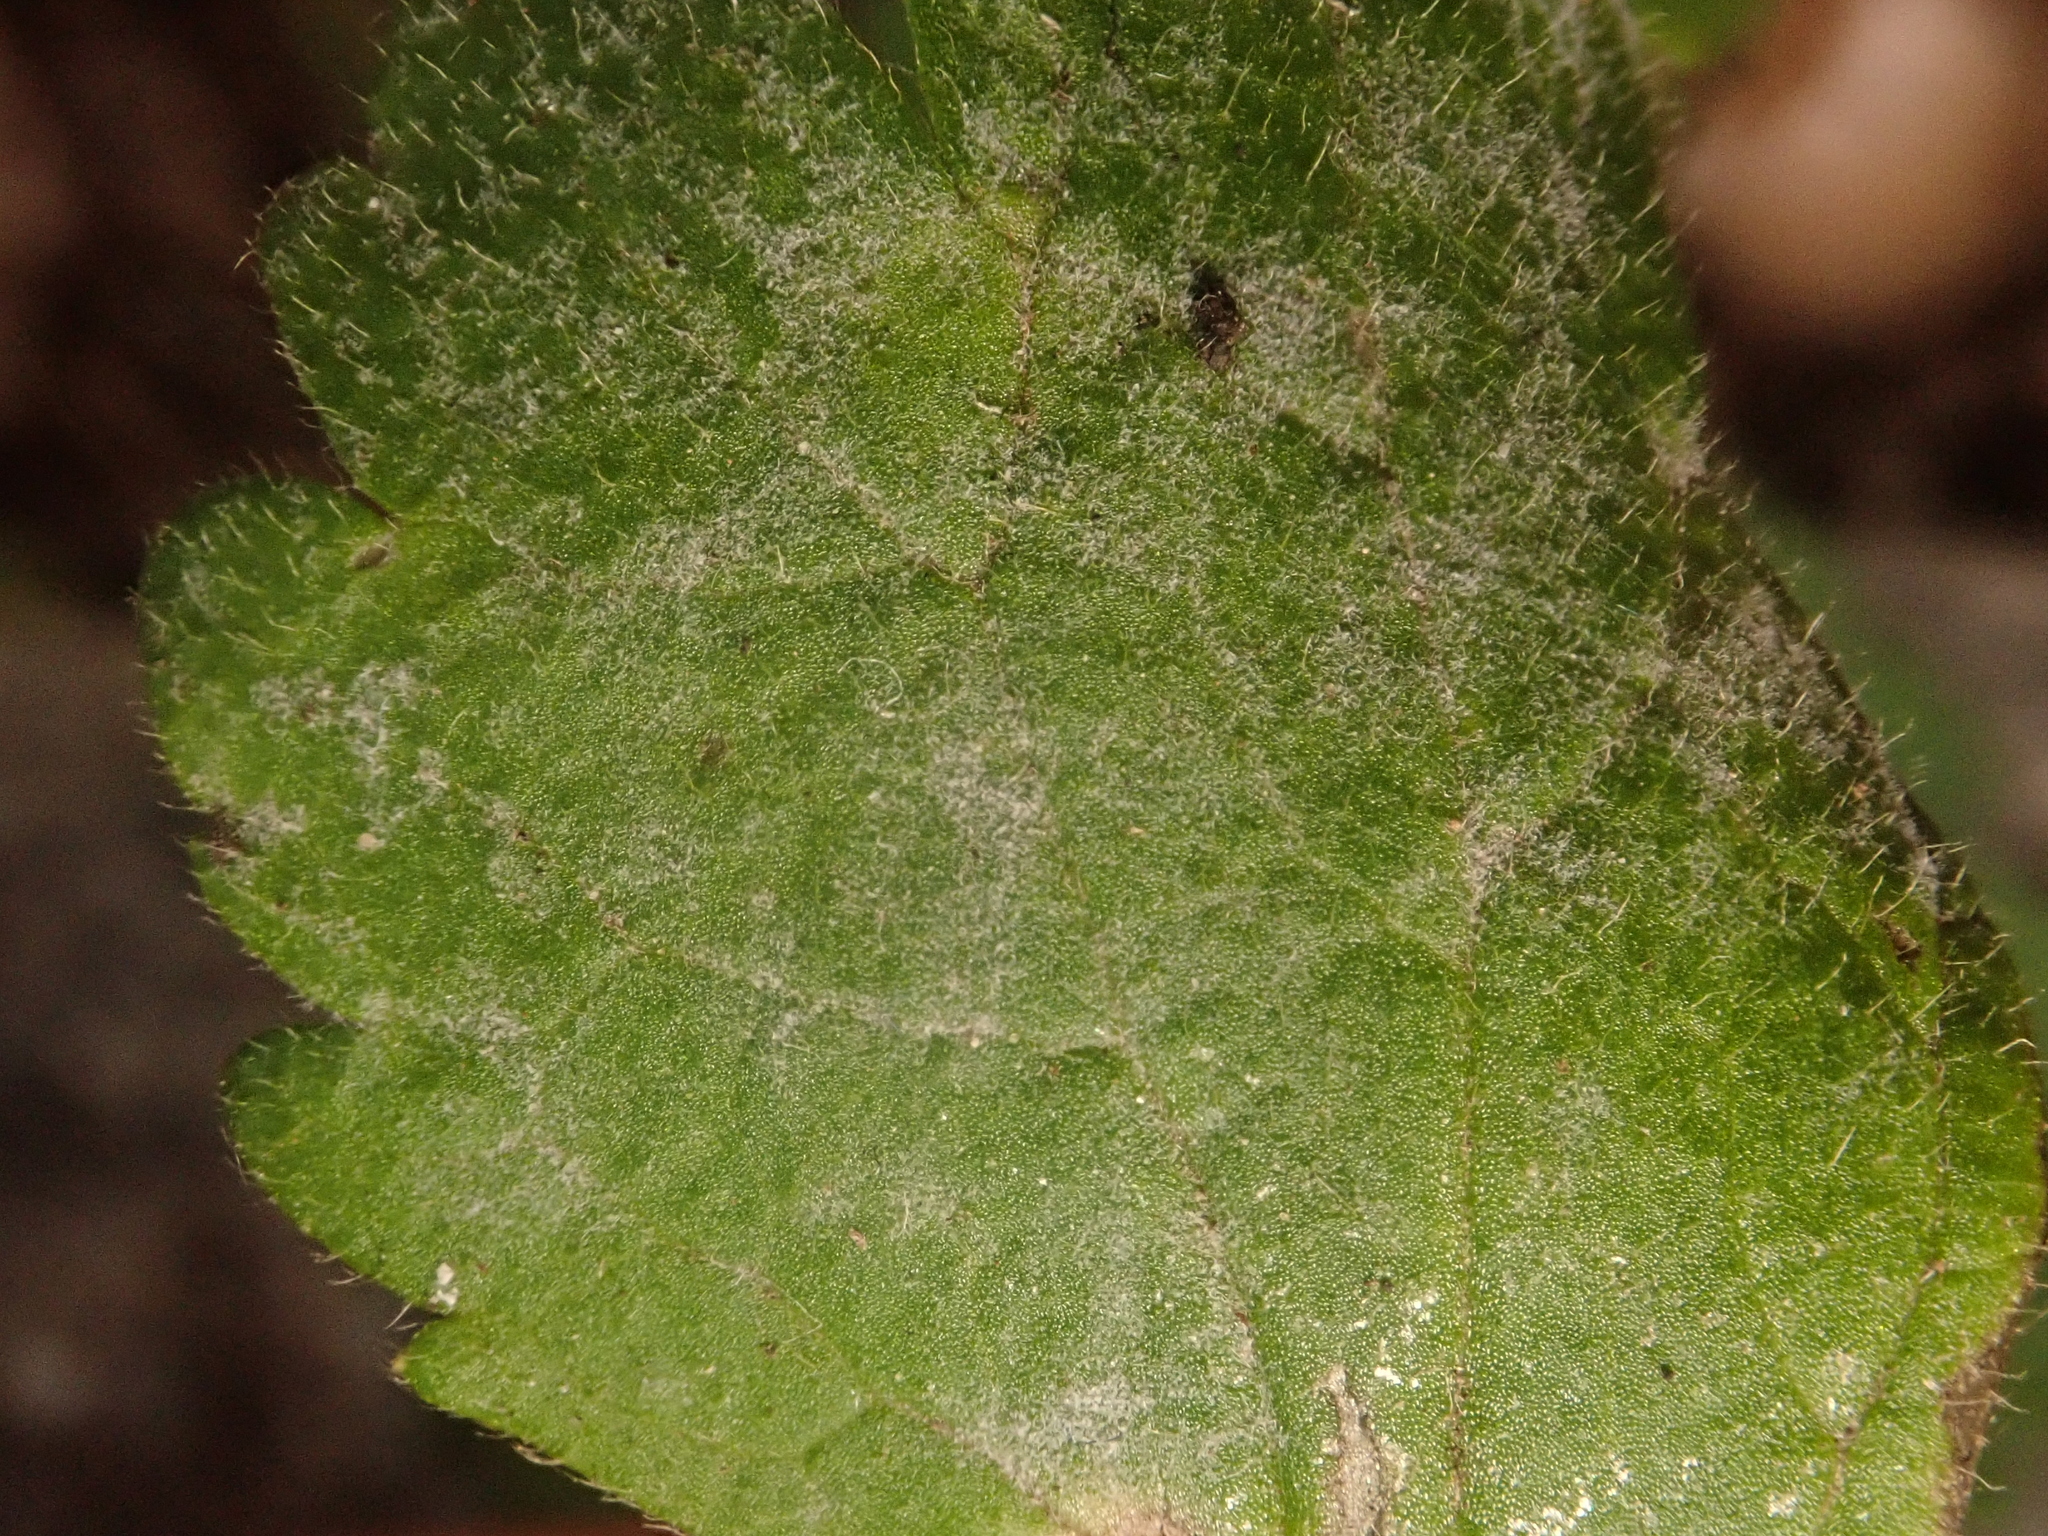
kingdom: Fungi
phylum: Ascomycota
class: Leotiomycetes
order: Helotiales
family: Erysiphaceae
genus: Erysiphe
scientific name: Erysiphe aquilegiae
